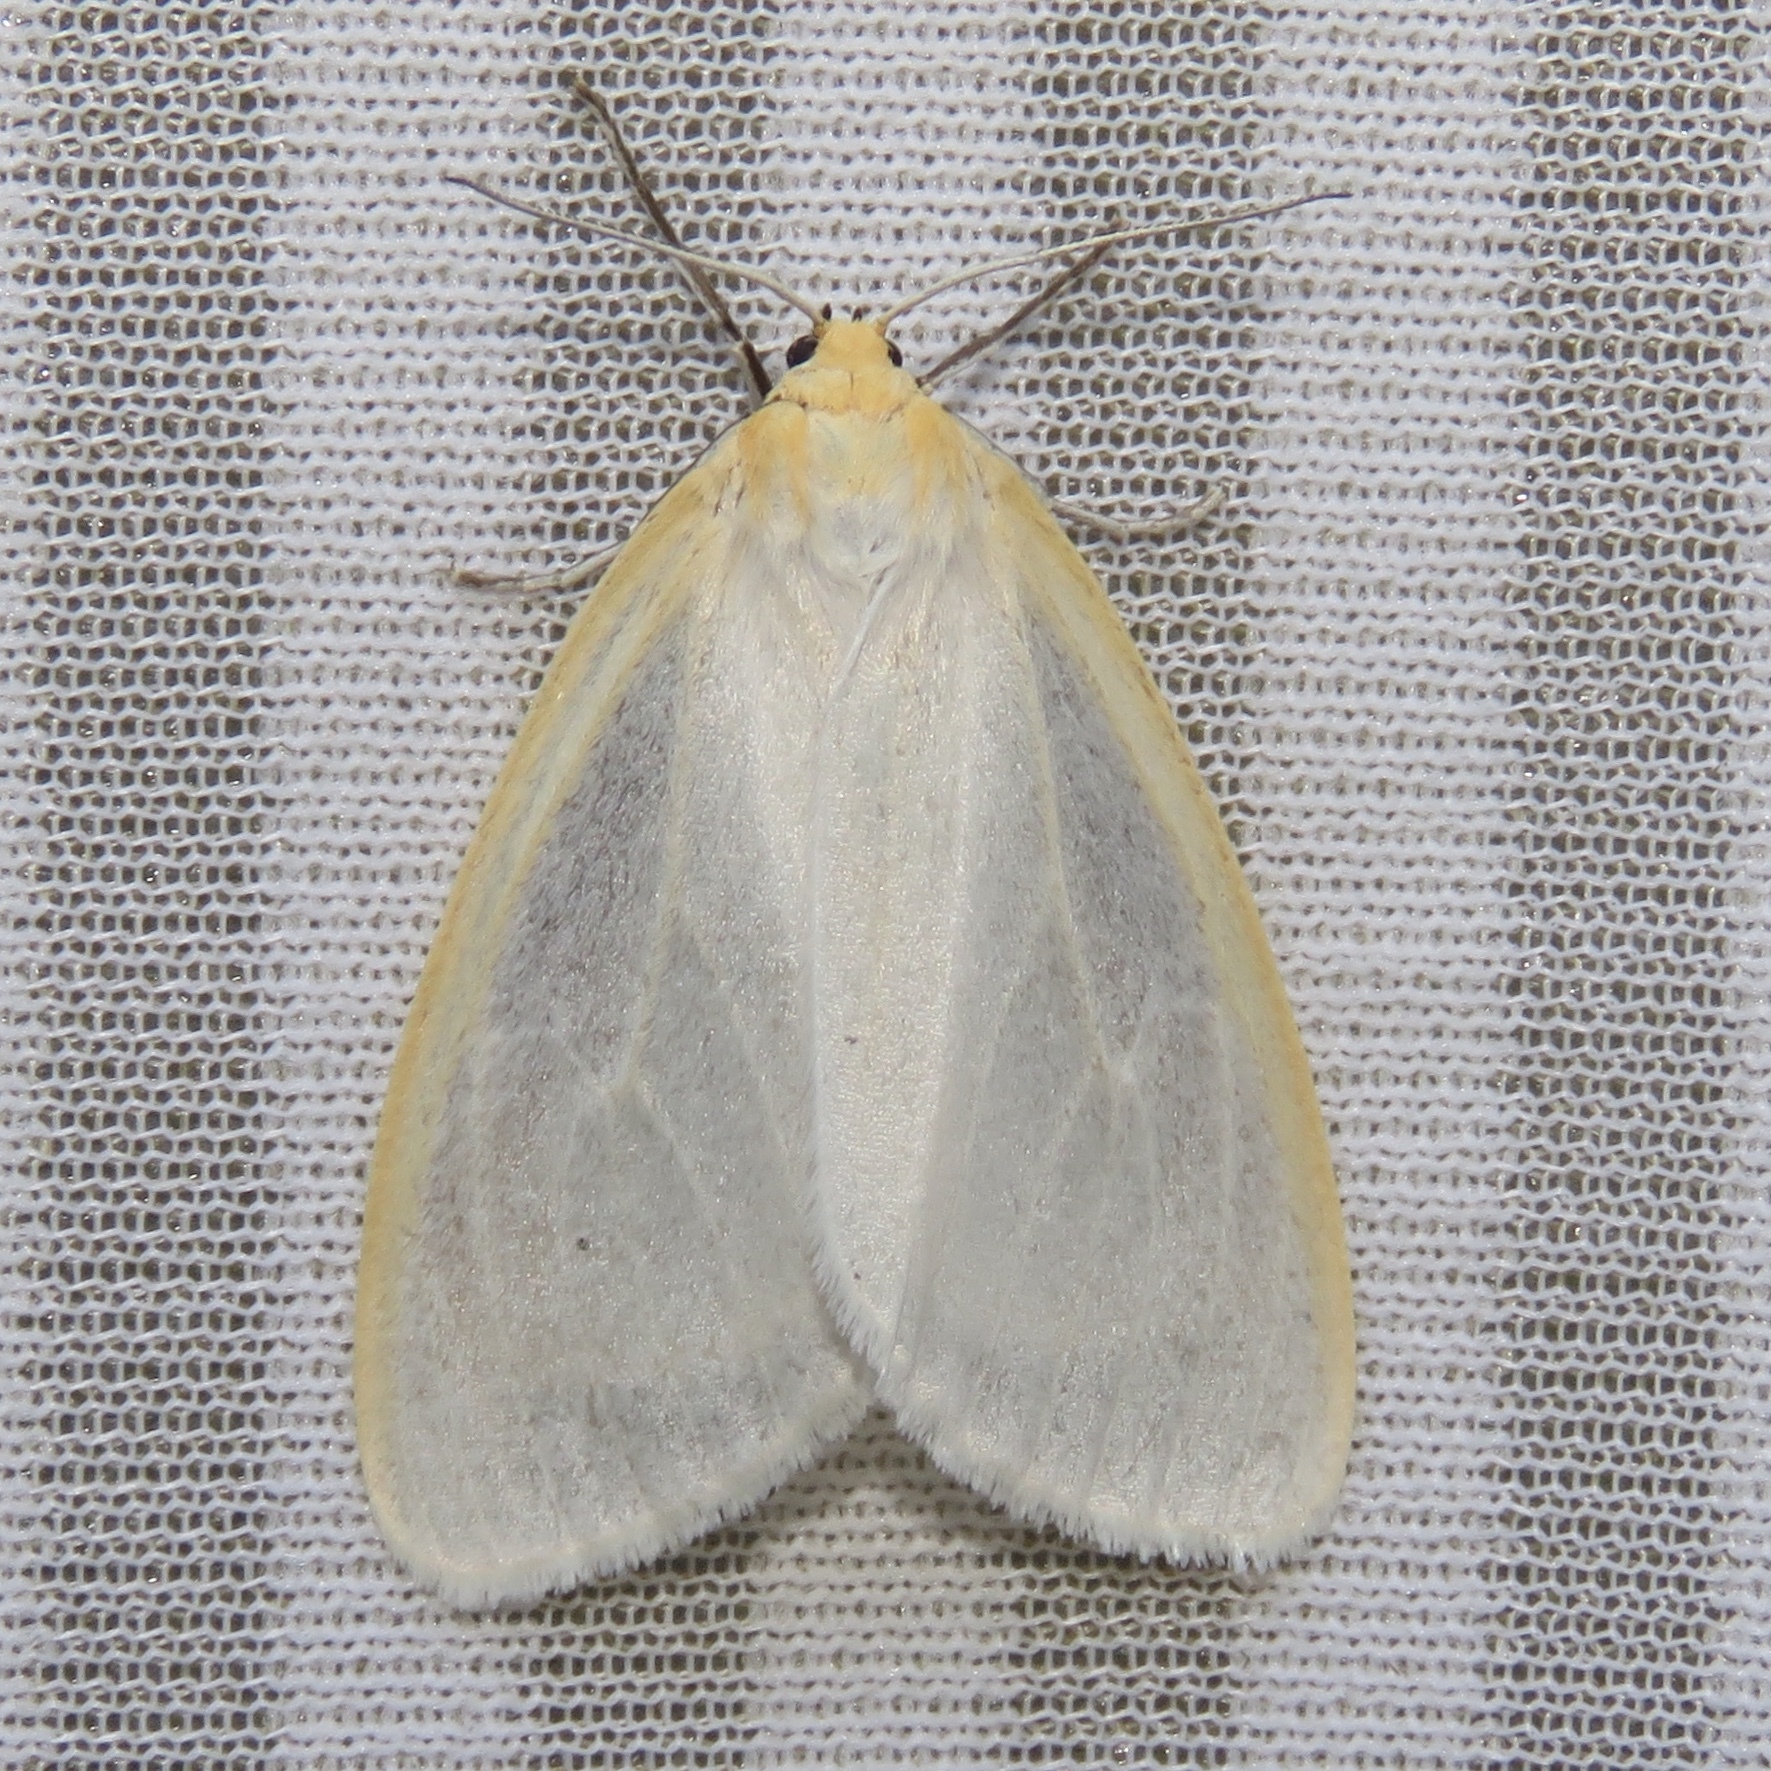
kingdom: Animalia
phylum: Arthropoda
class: Insecta
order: Lepidoptera
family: Erebidae
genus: Cycnia
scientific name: Cycnia tenera
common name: Delicate cycnia moth
